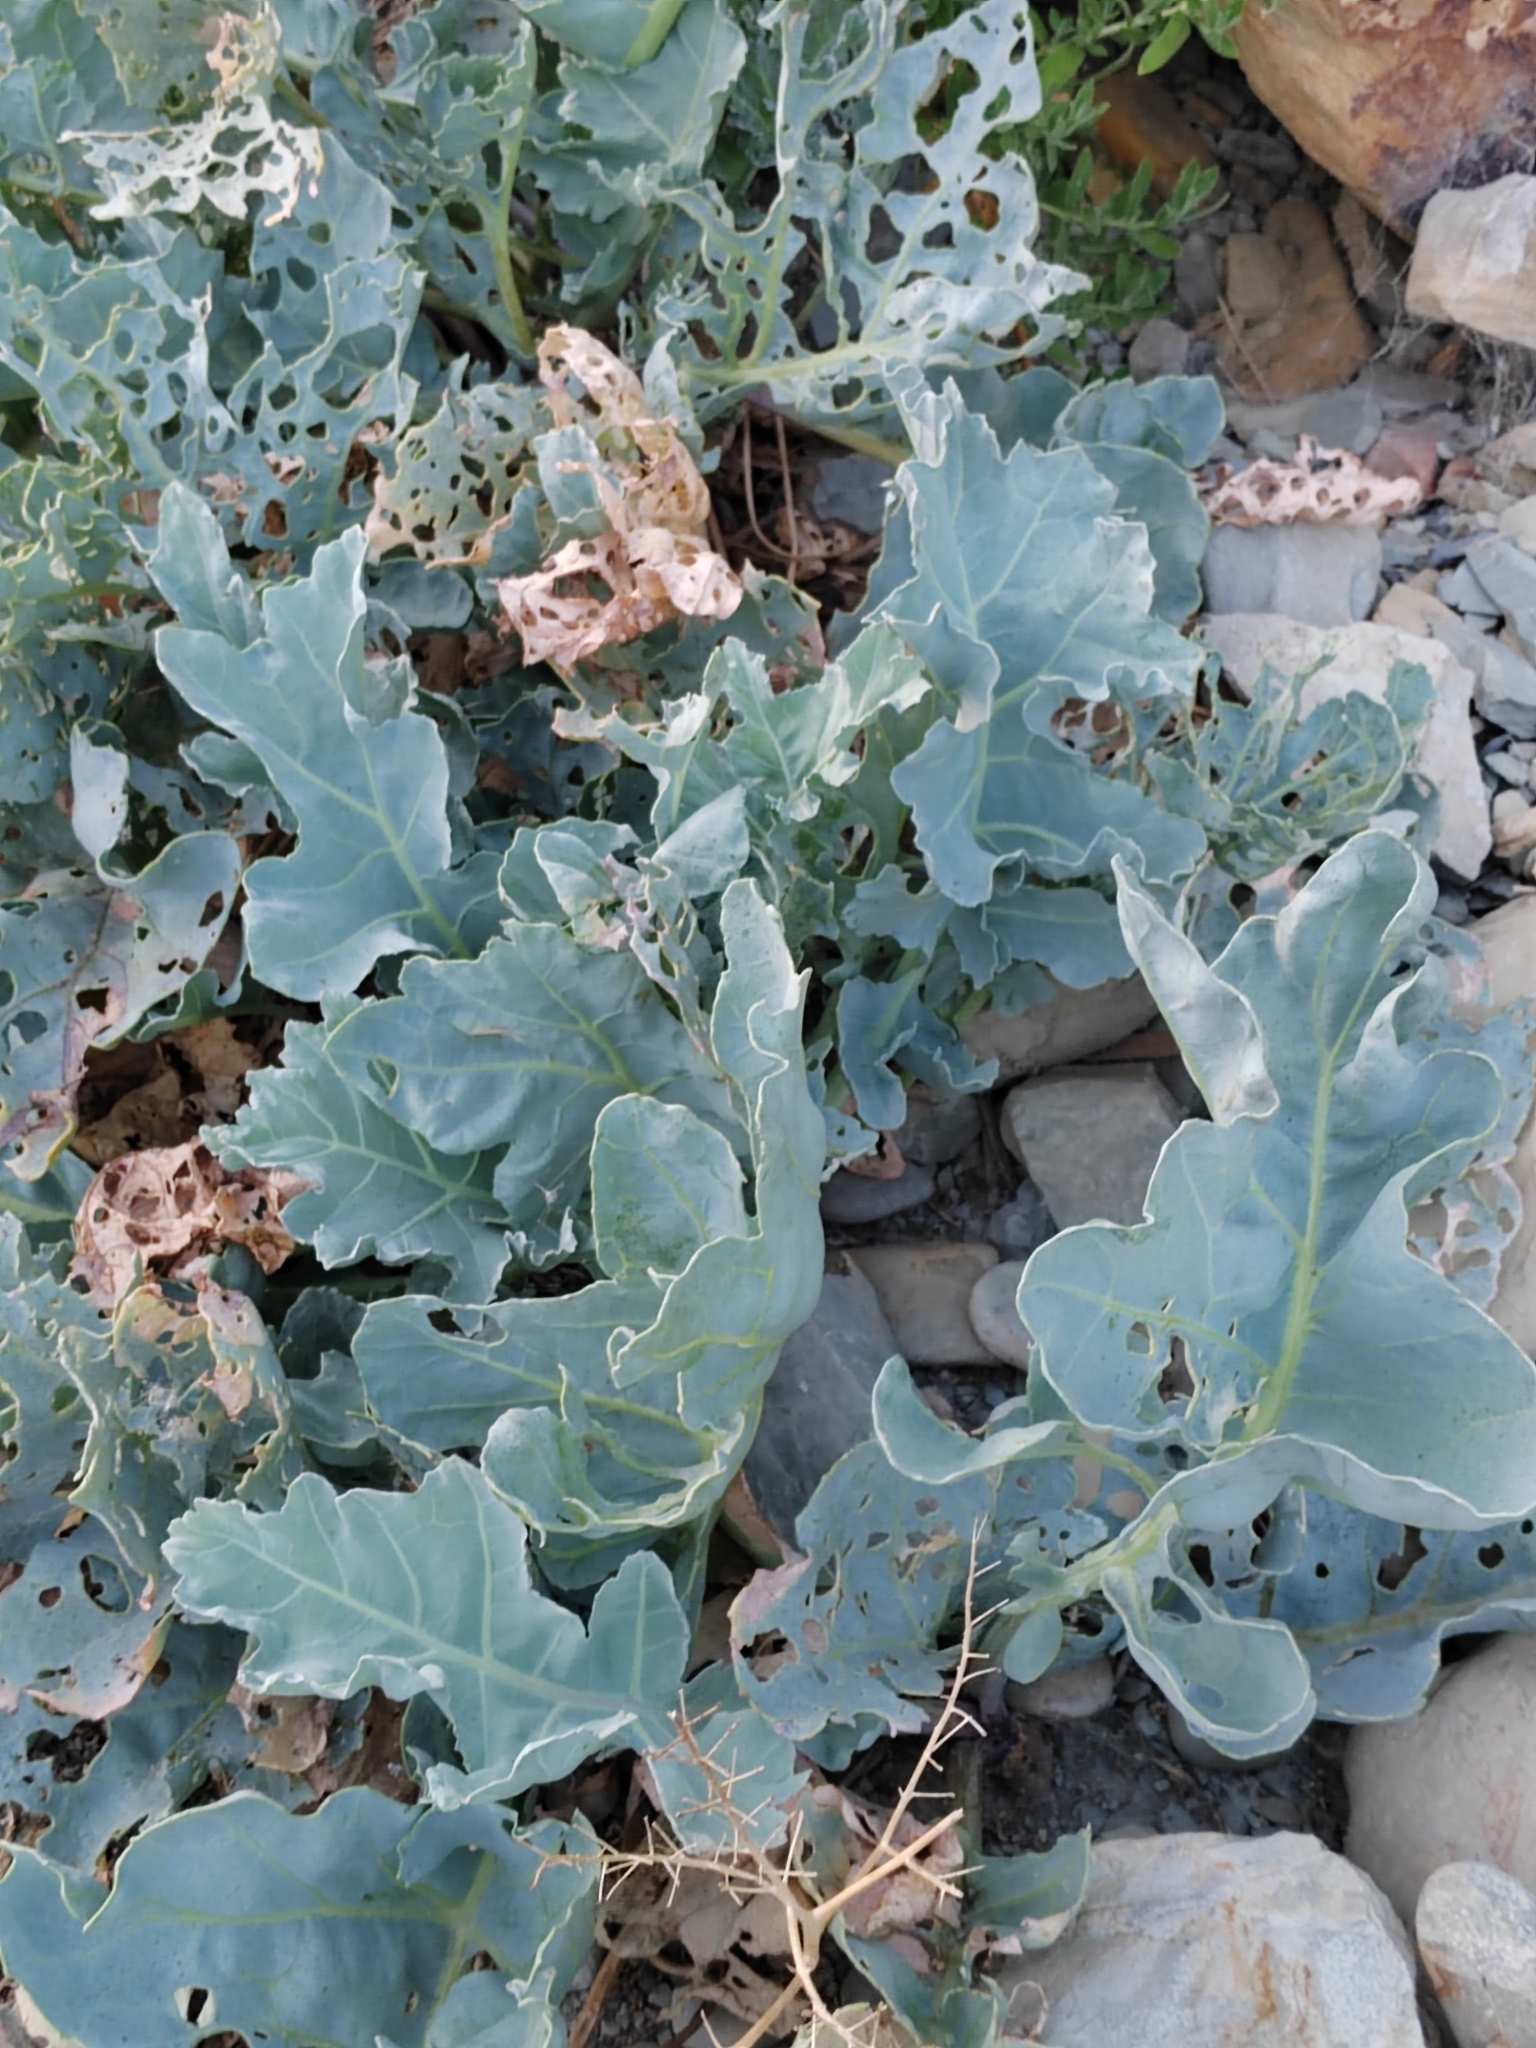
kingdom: Plantae
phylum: Tracheophyta
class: Magnoliopsida
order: Brassicales
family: Brassicaceae
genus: Crambe
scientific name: Crambe maritima
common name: Sea-kale
